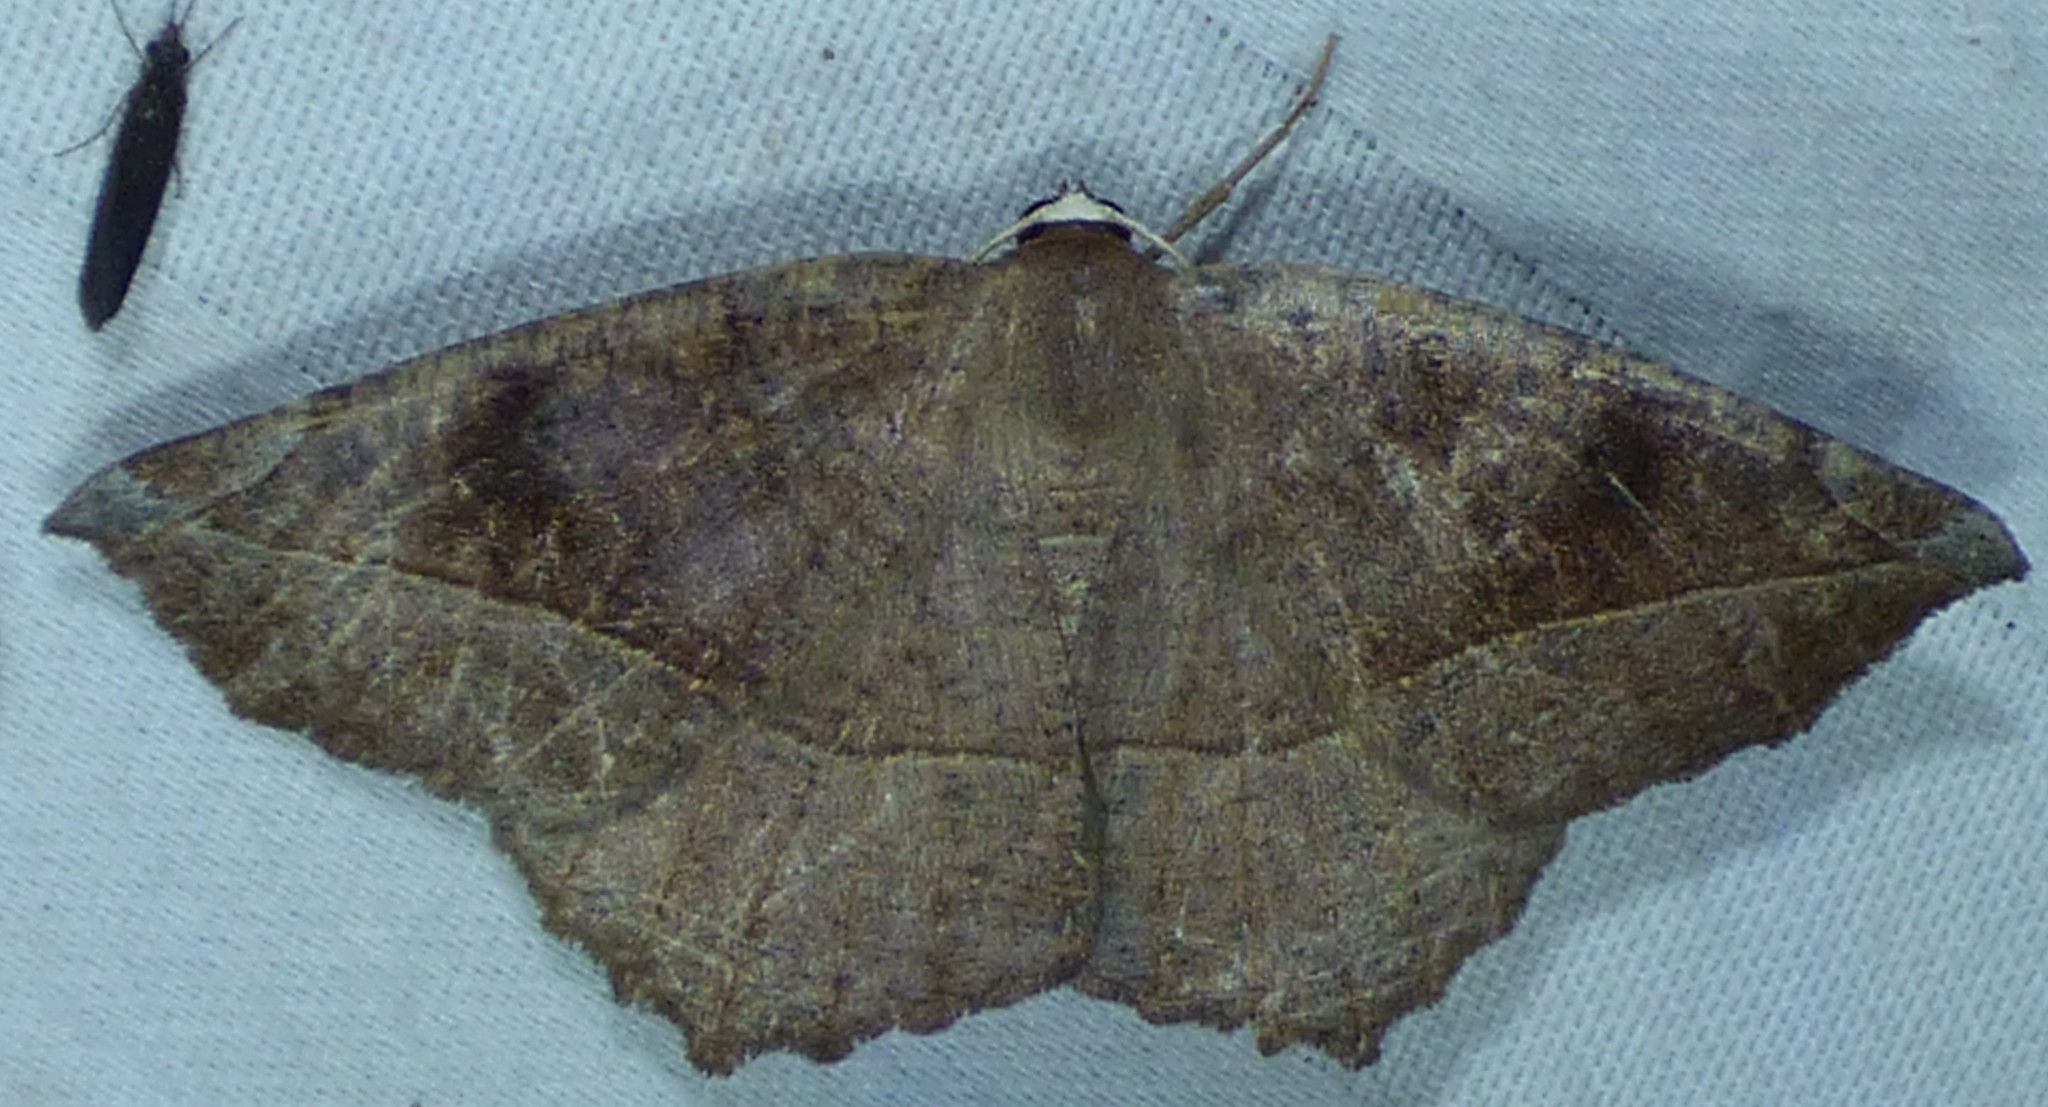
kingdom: Animalia
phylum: Arthropoda
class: Insecta
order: Lepidoptera
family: Geometridae
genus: Eutrapela
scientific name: Eutrapela clemataria
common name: Curved-toothed geometer
